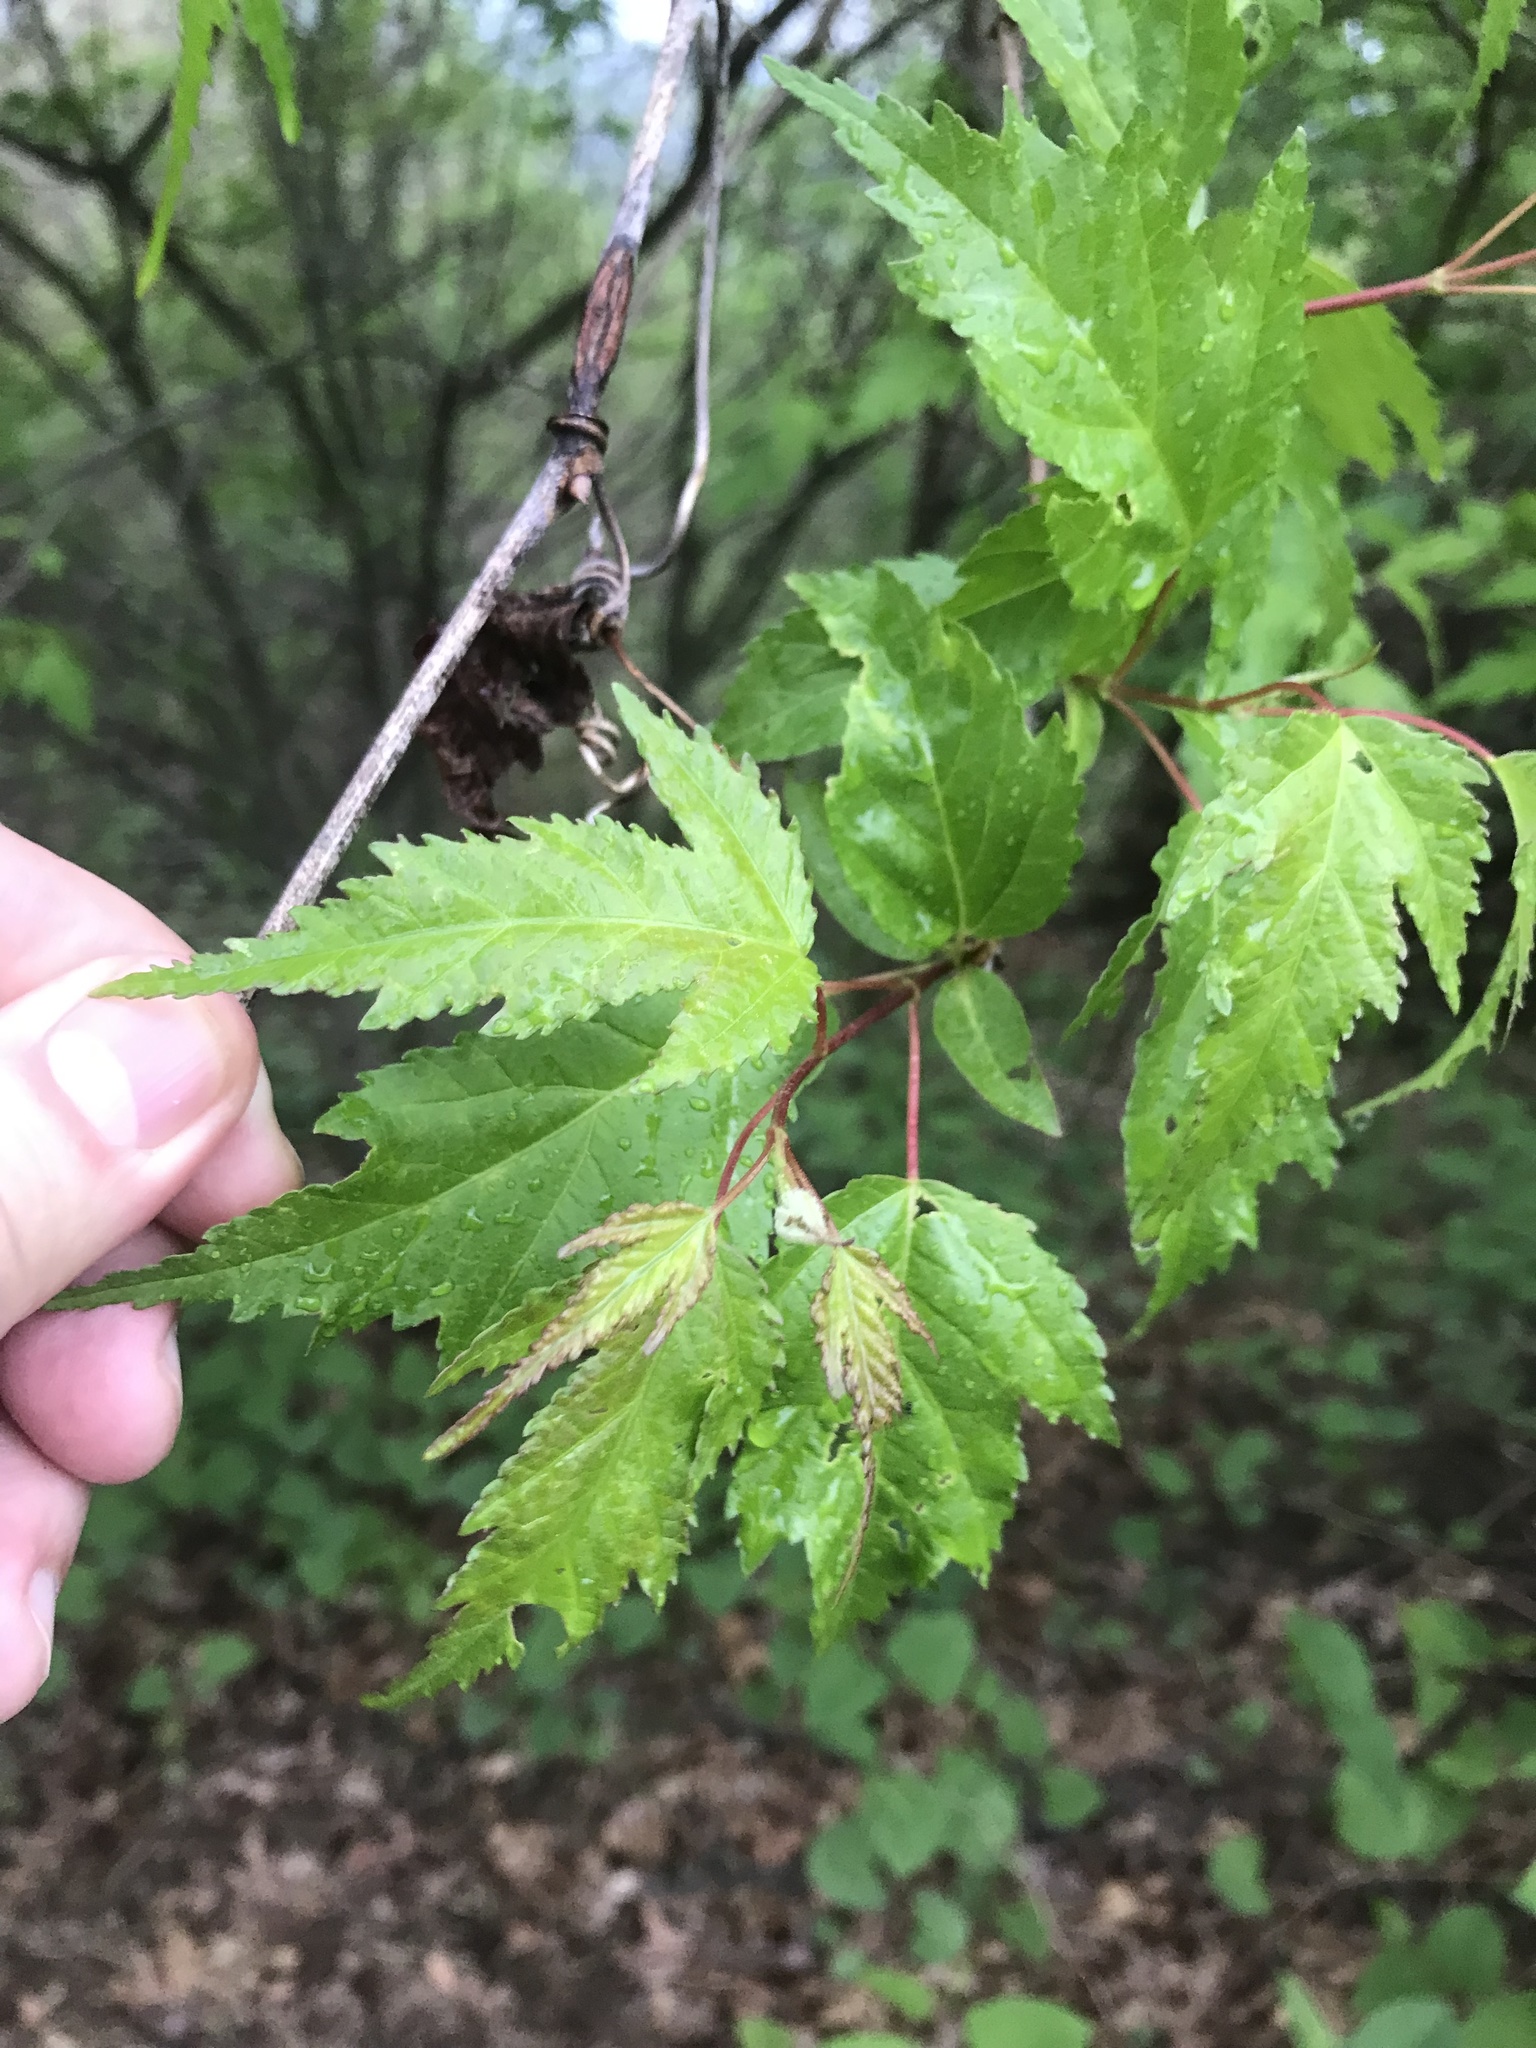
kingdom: Plantae
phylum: Tracheophyta
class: Magnoliopsida
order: Sapindales
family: Sapindaceae
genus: Acer
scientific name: Acer tataricum
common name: Tartar maple
